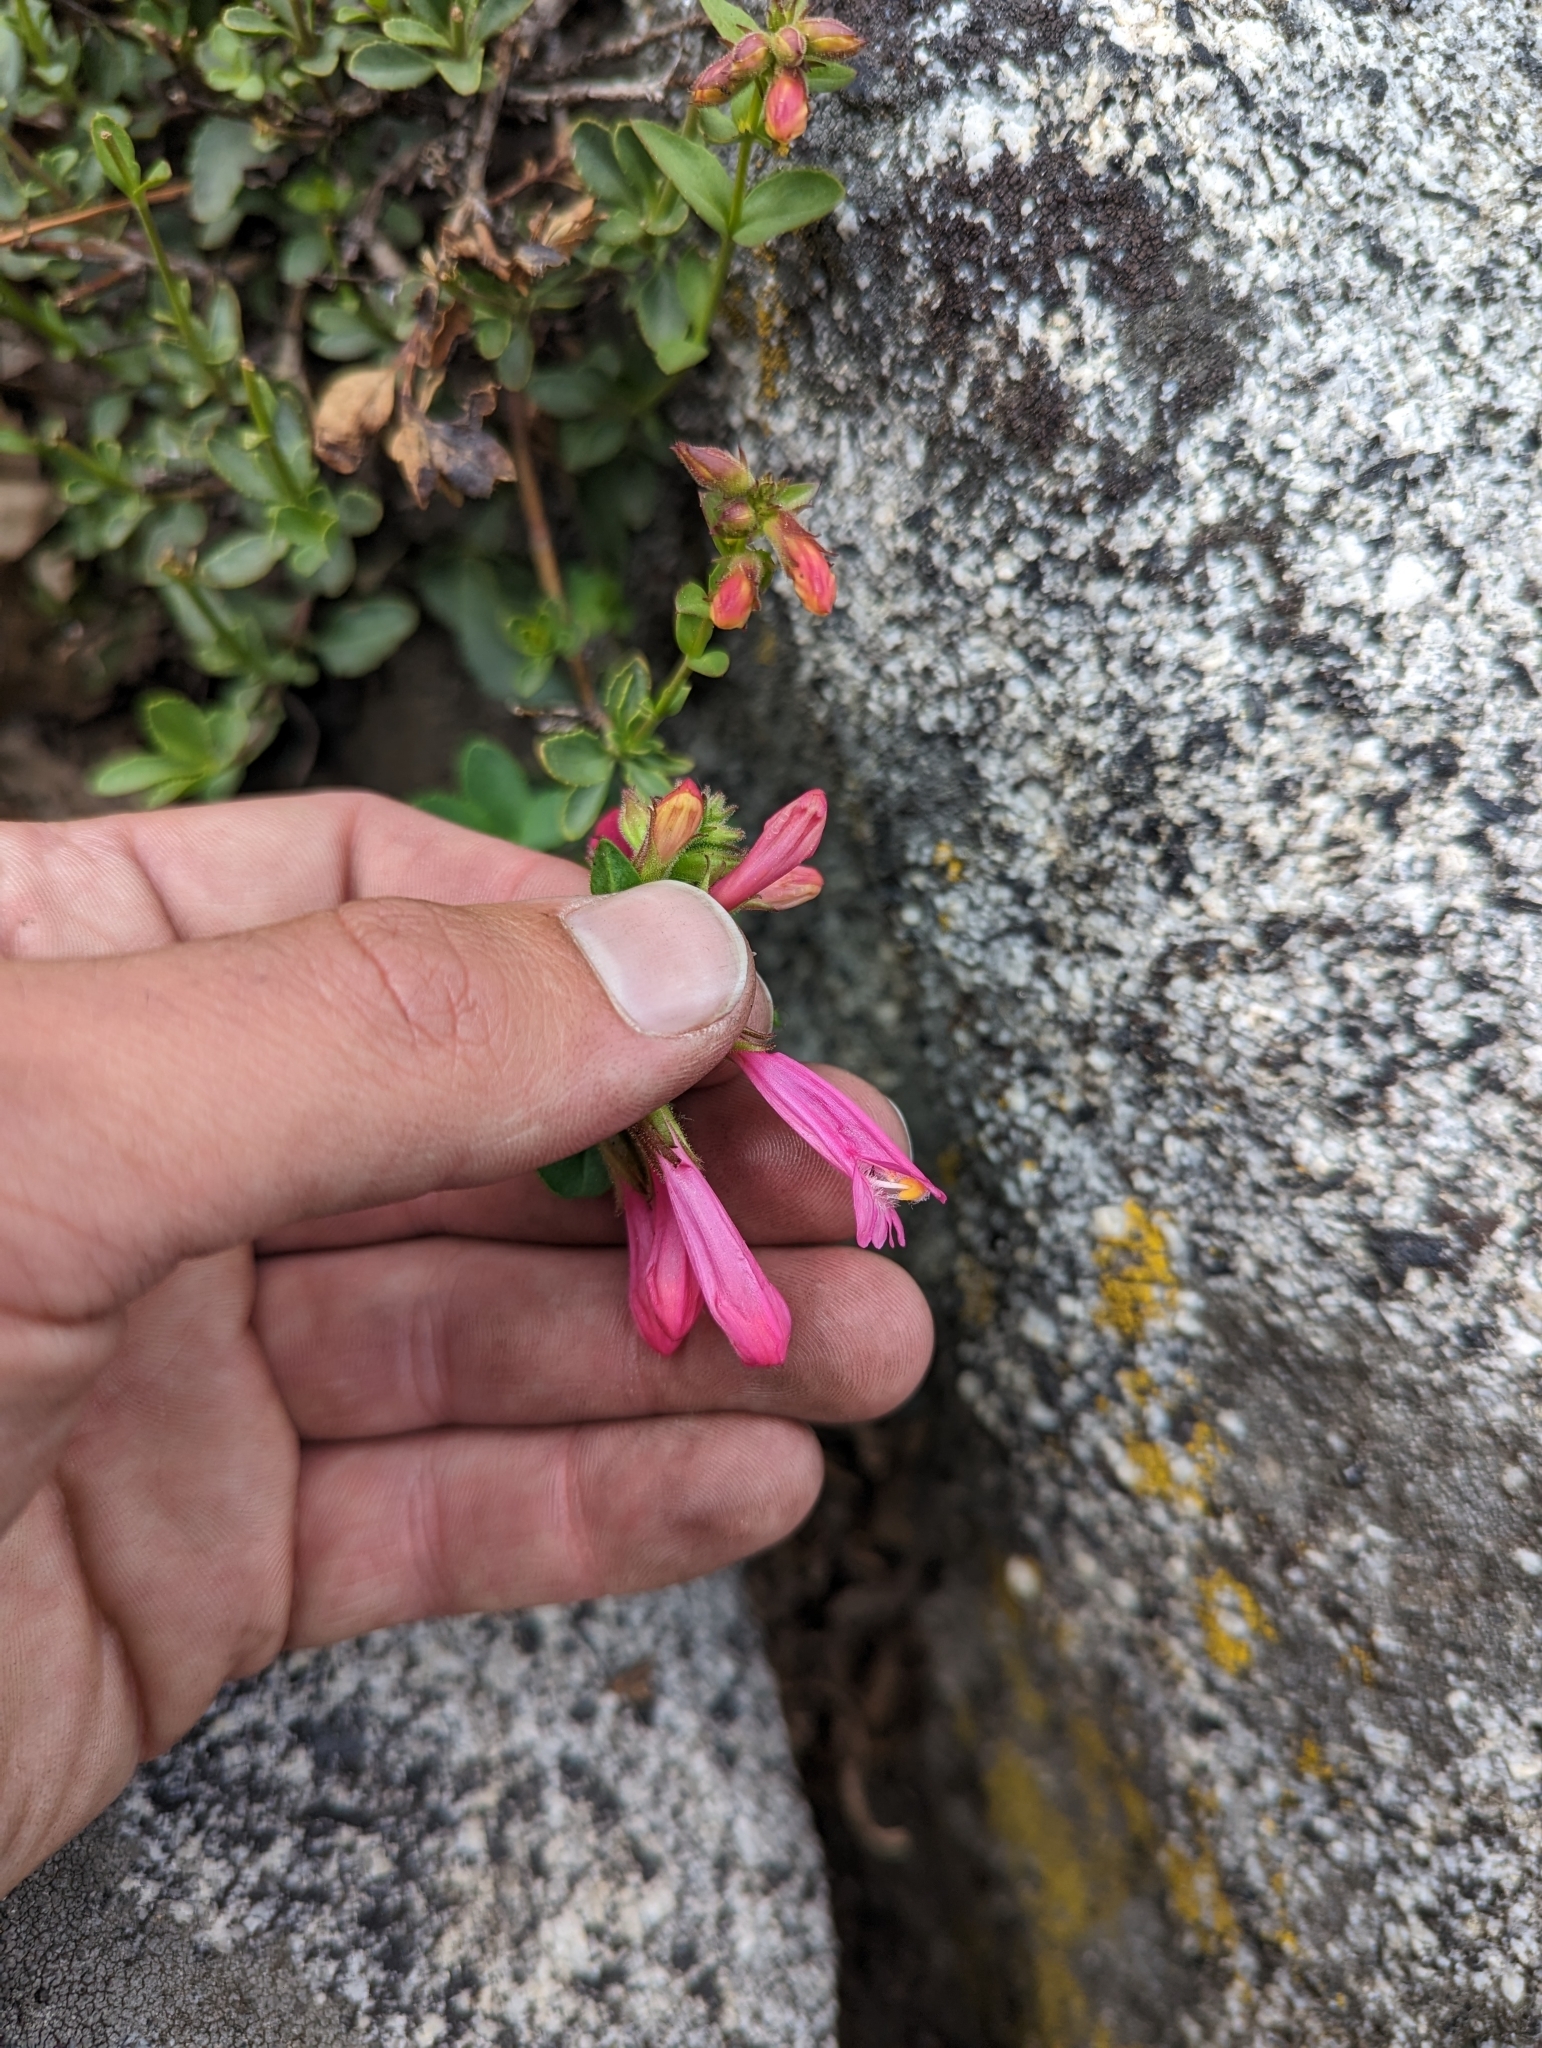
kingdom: Plantae
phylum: Tracheophyta
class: Magnoliopsida
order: Lamiales
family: Plantaginaceae
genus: Penstemon
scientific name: Penstemon newberryi
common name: Mountain-pride
